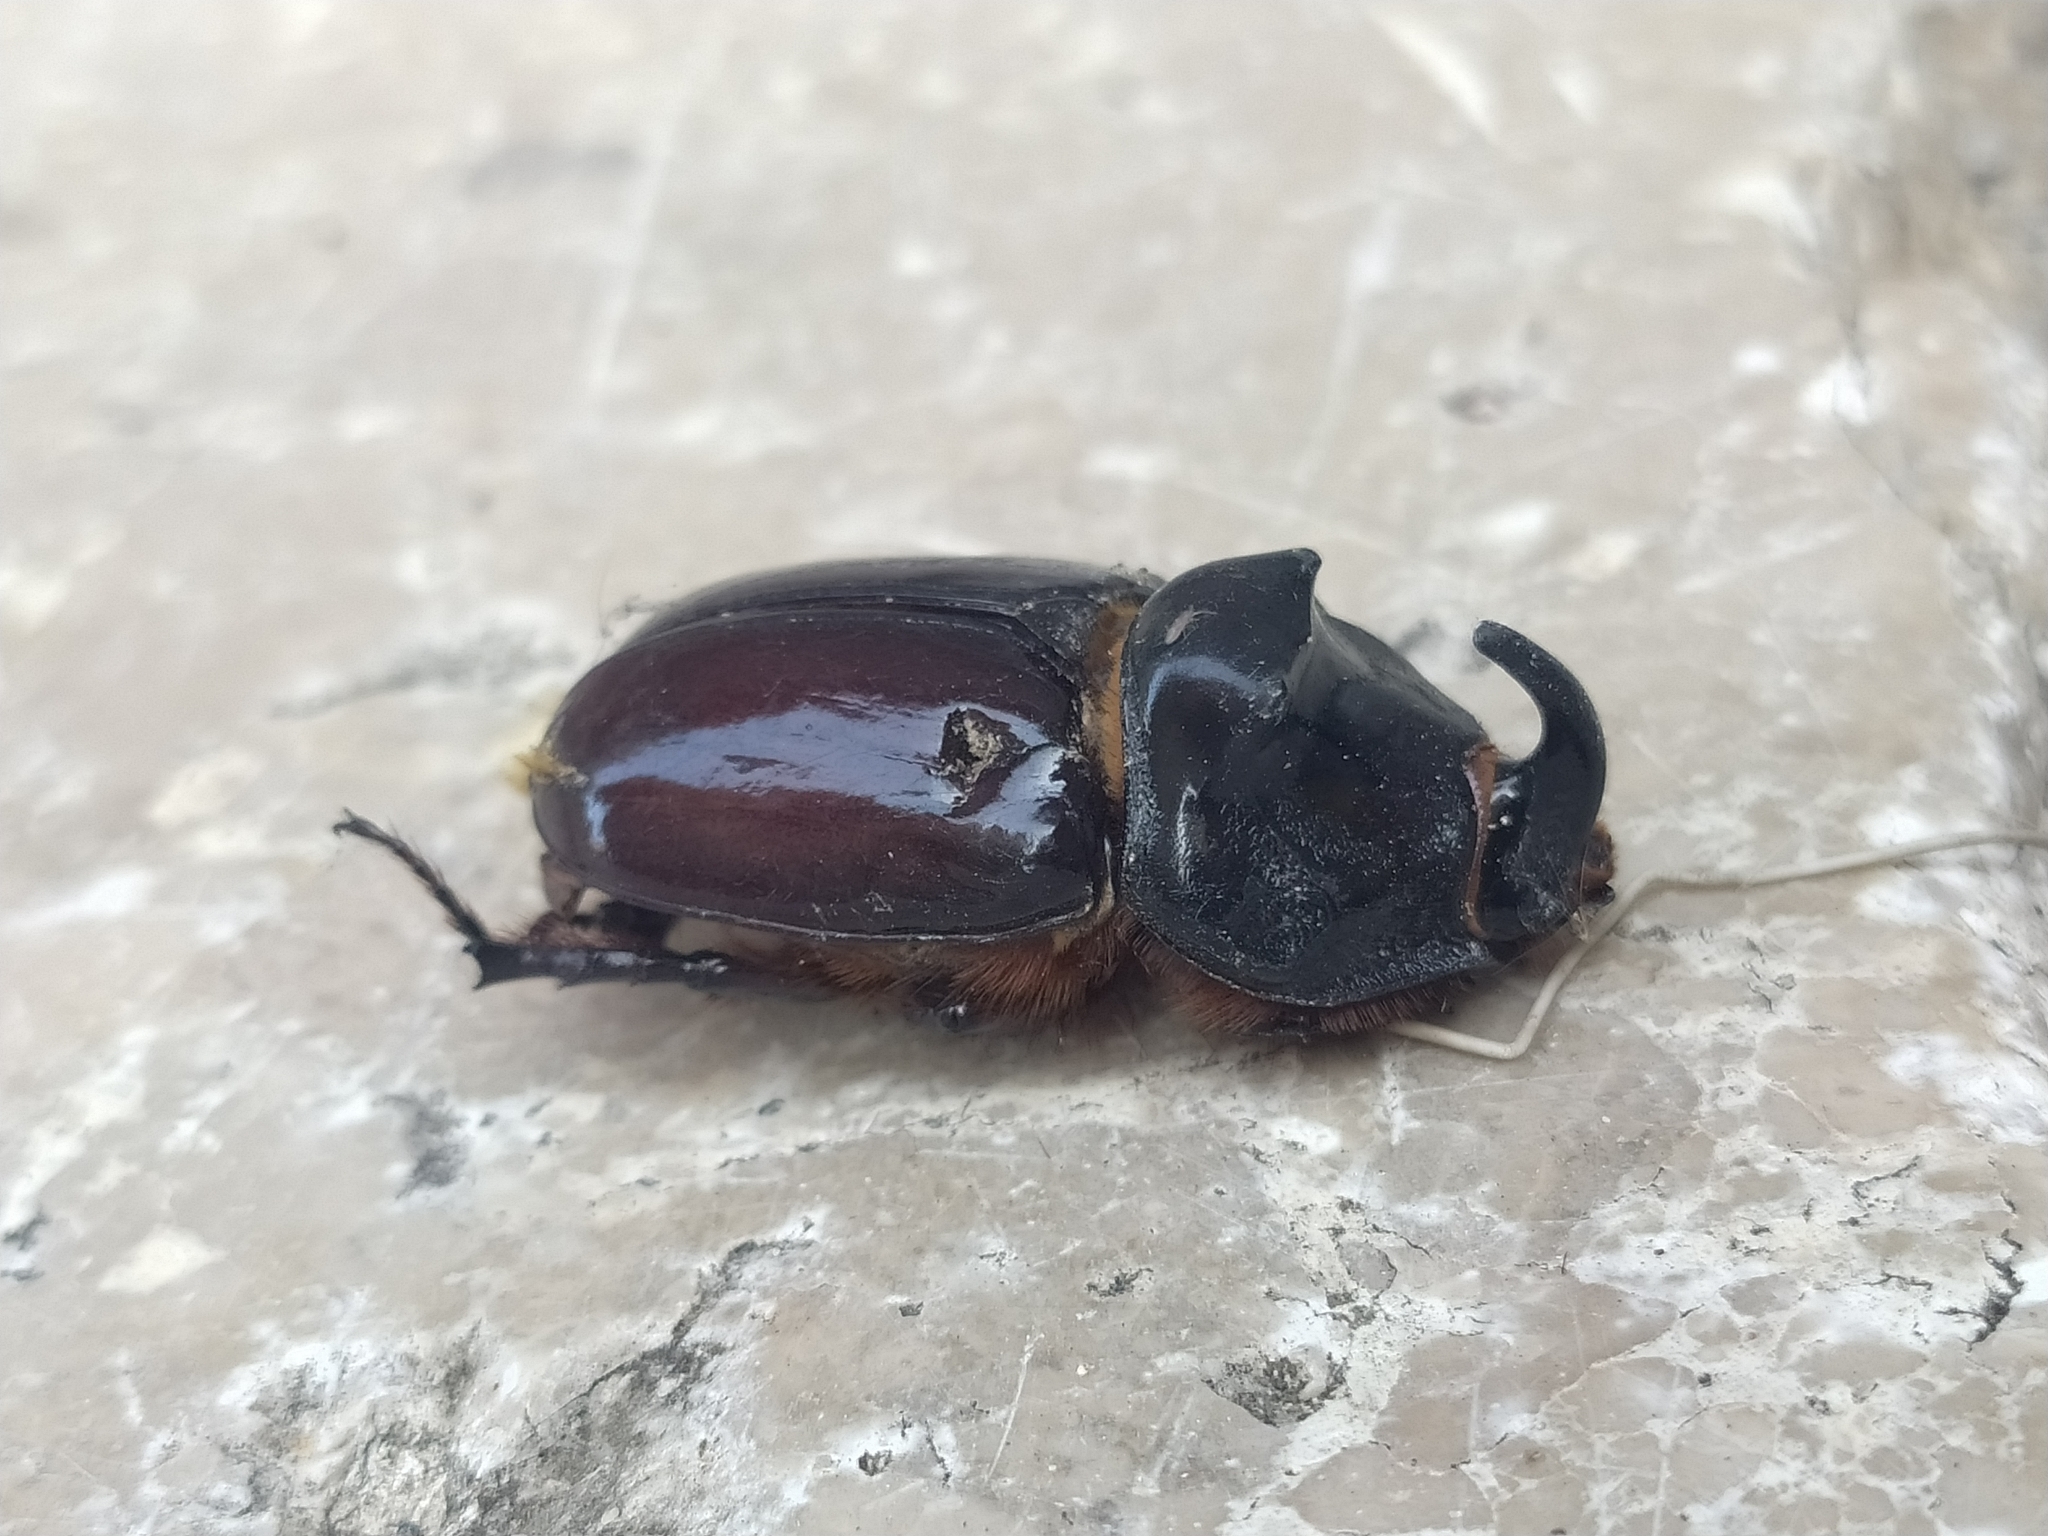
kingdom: Animalia
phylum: Arthropoda
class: Insecta
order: Coleoptera
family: Scarabaeidae
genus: Oryctes
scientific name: Oryctes nasicornis
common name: European rhinoceros beetle
